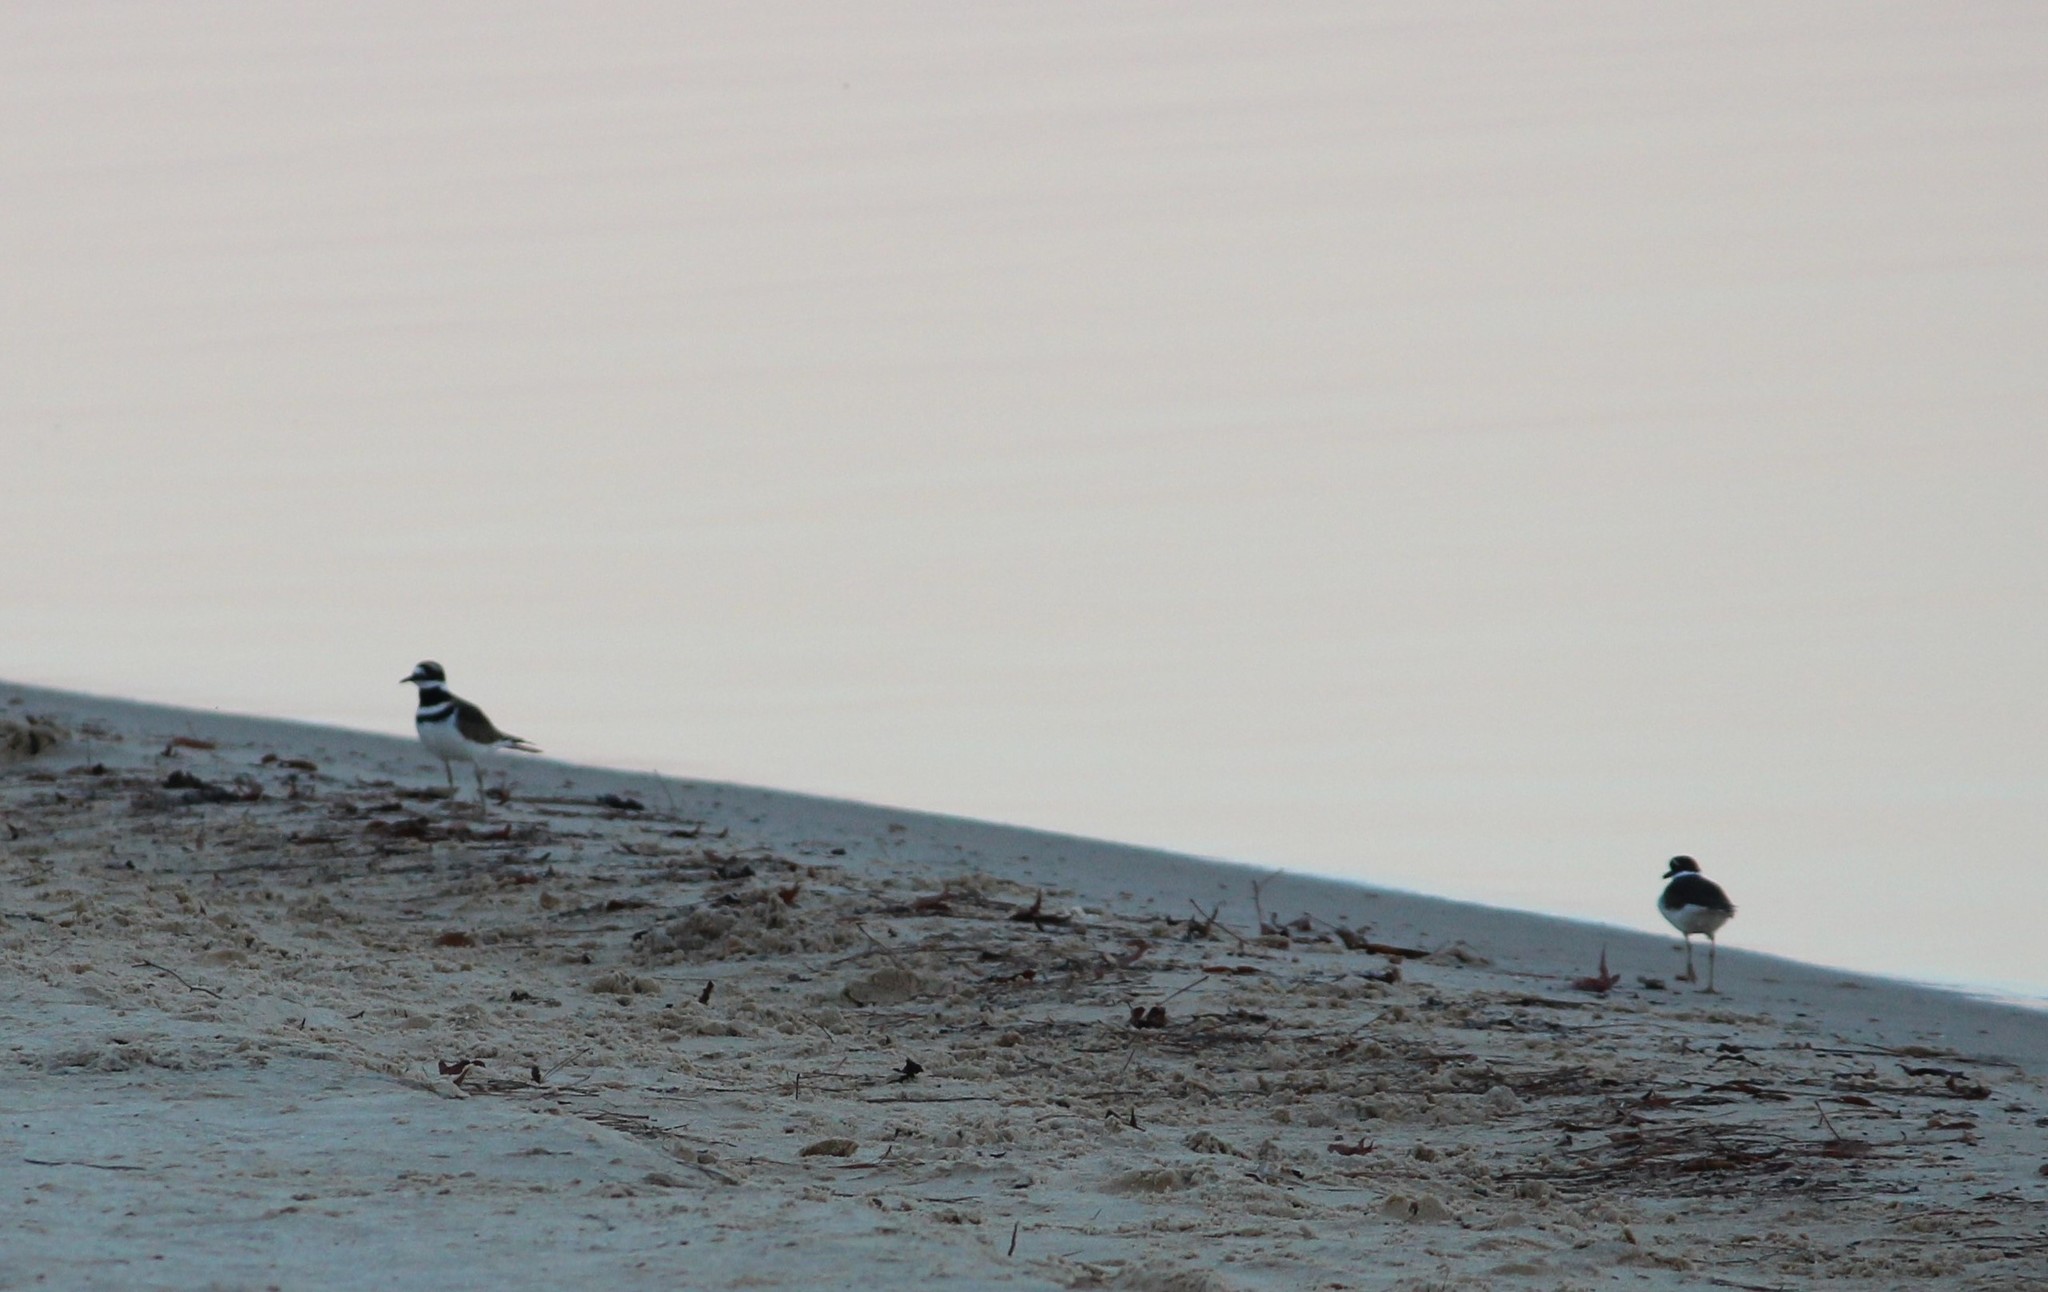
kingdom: Animalia
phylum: Chordata
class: Aves
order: Charadriiformes
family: Charadriidae
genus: Charadrius
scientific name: Charadrius vociferus
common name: Killdeer
